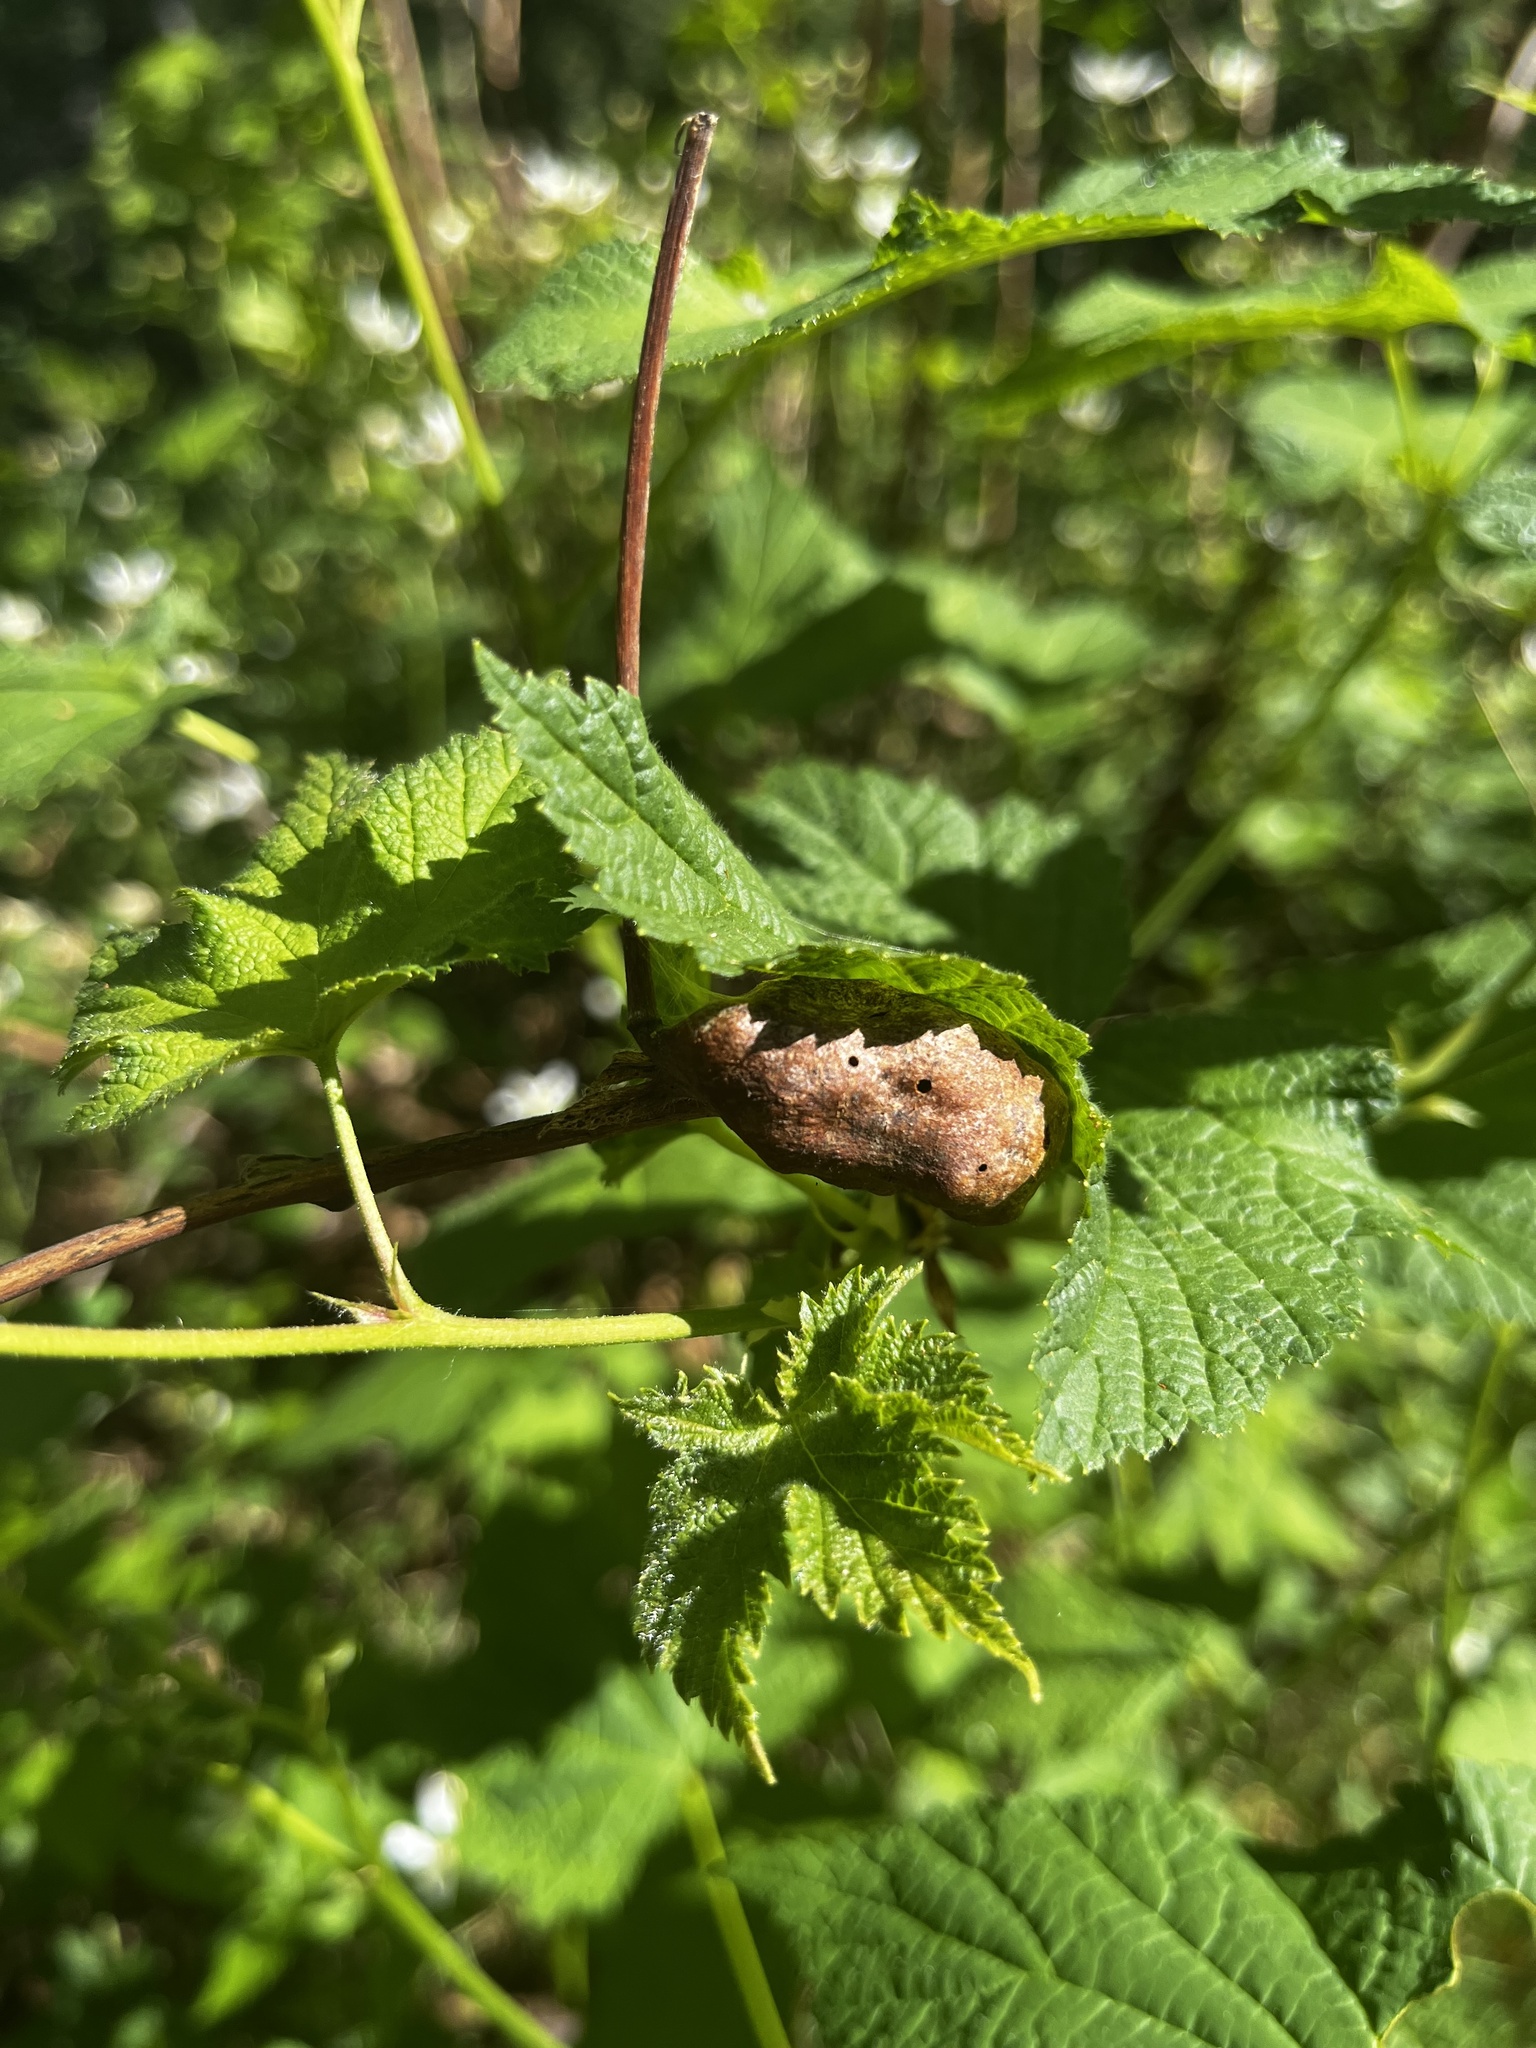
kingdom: Animalia
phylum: Arthropoda
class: Insecta
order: Hymenoptera
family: Cynipidae
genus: Diastrophus
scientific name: Diastrophus
